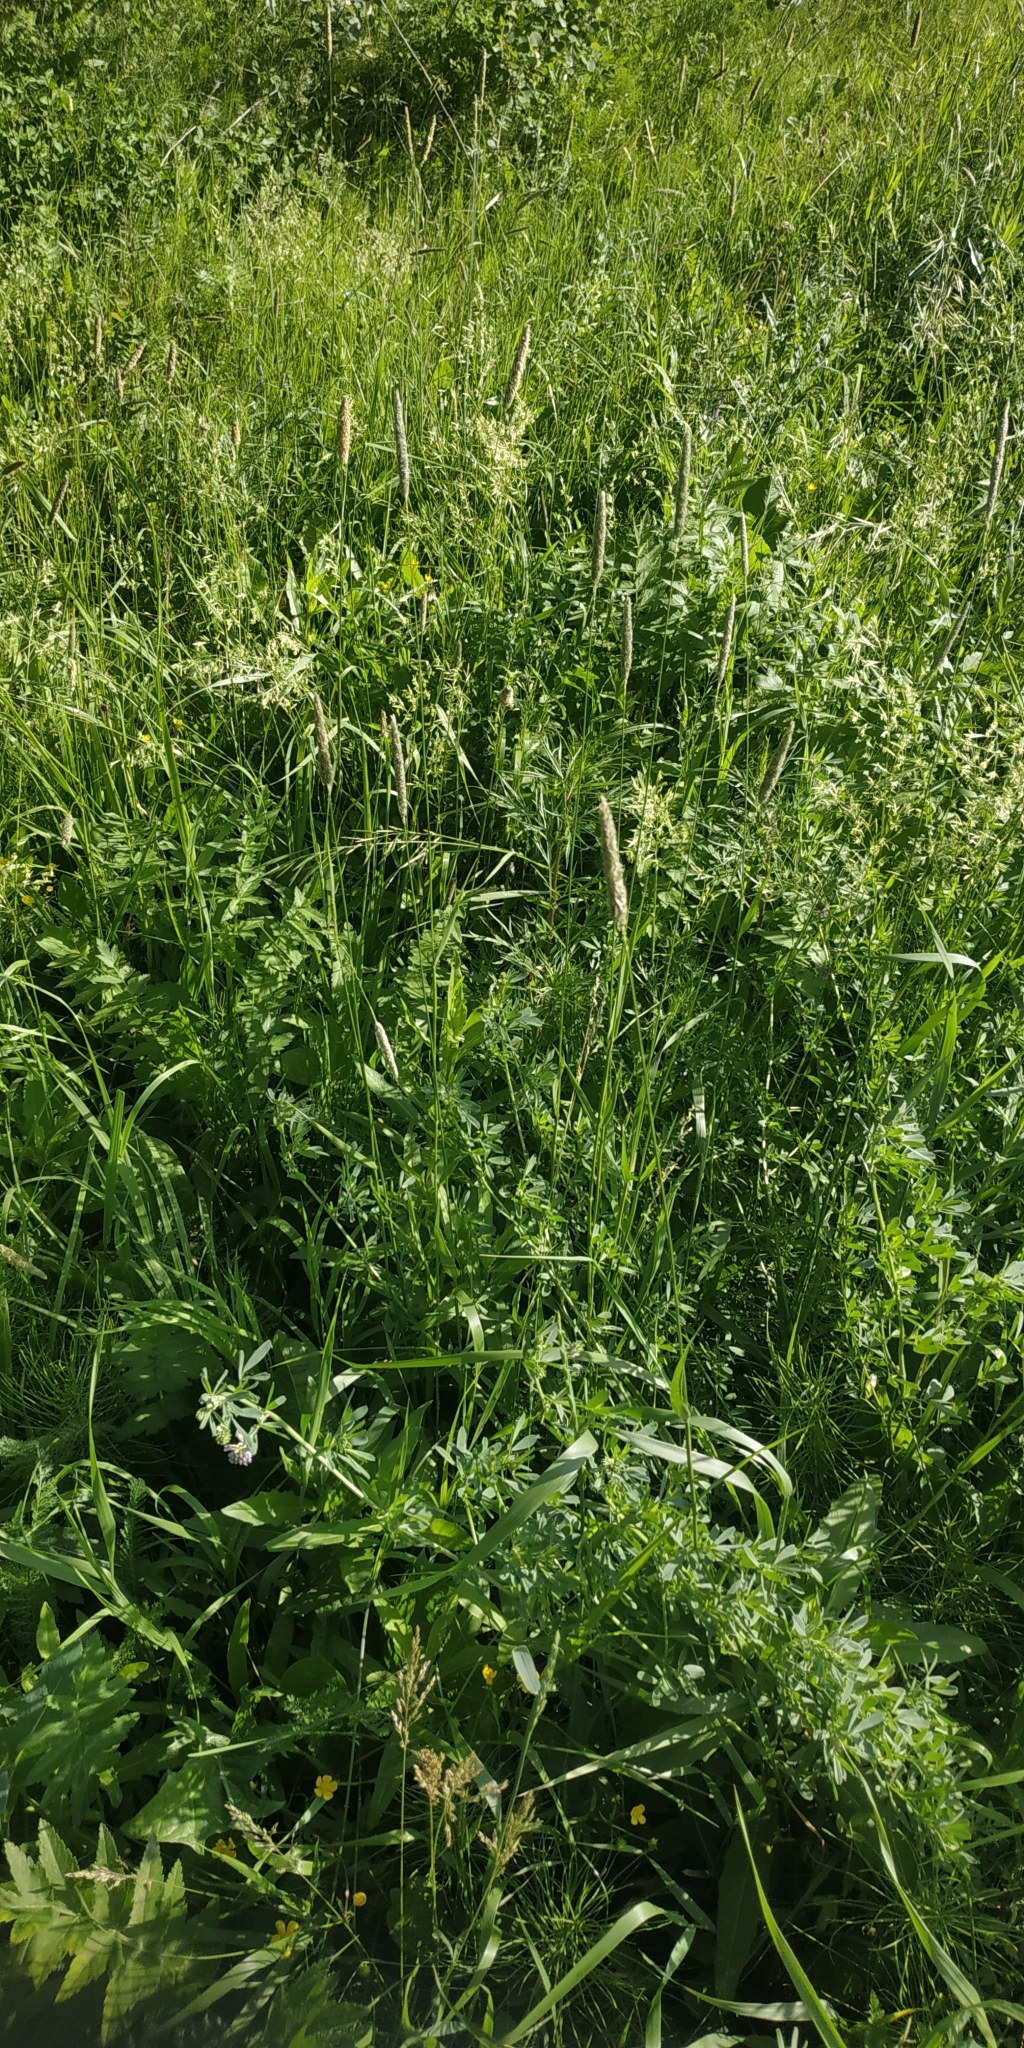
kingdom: Plantae
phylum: Tracheophyta
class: Liliopsida
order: Poales
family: Poaceae
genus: Alopecurus
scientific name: Alopecurus pratensis
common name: Meadow foxtail
